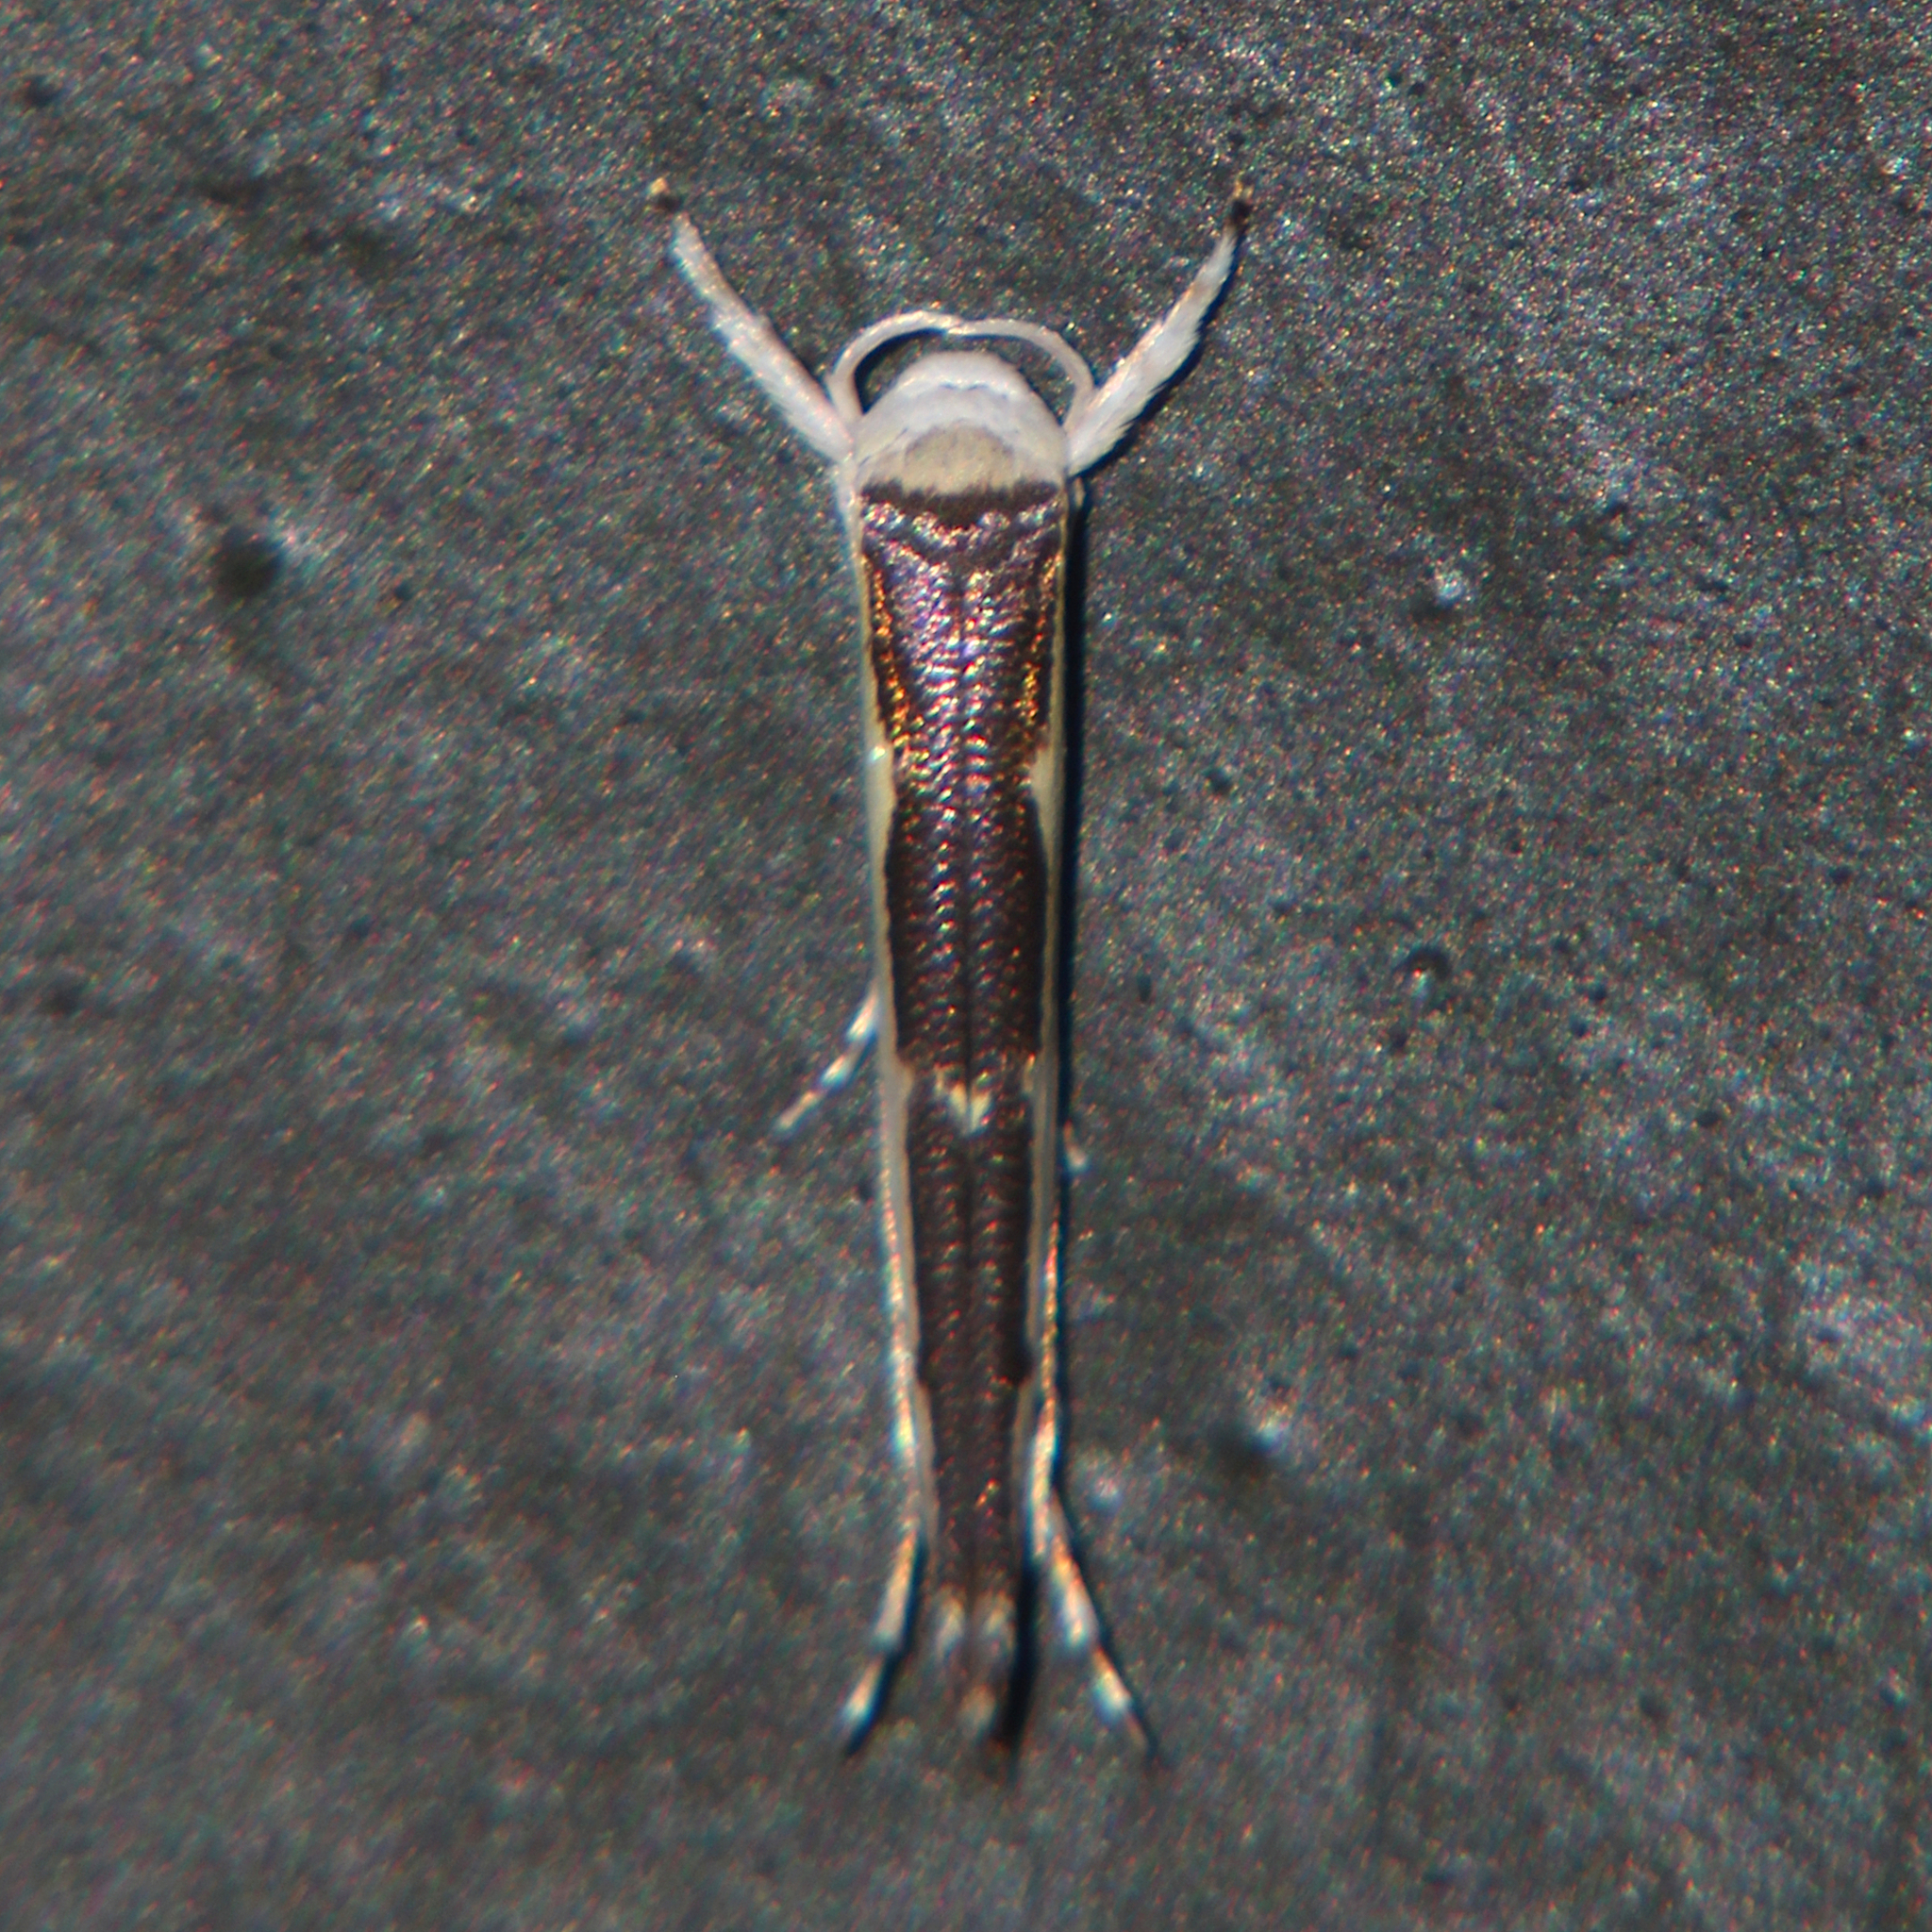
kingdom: Animalia
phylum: Arthropoda
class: Insecta
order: Lepidoptera
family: Roeslerstammiidae
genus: Vanicela
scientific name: Vanicela disjunctella
